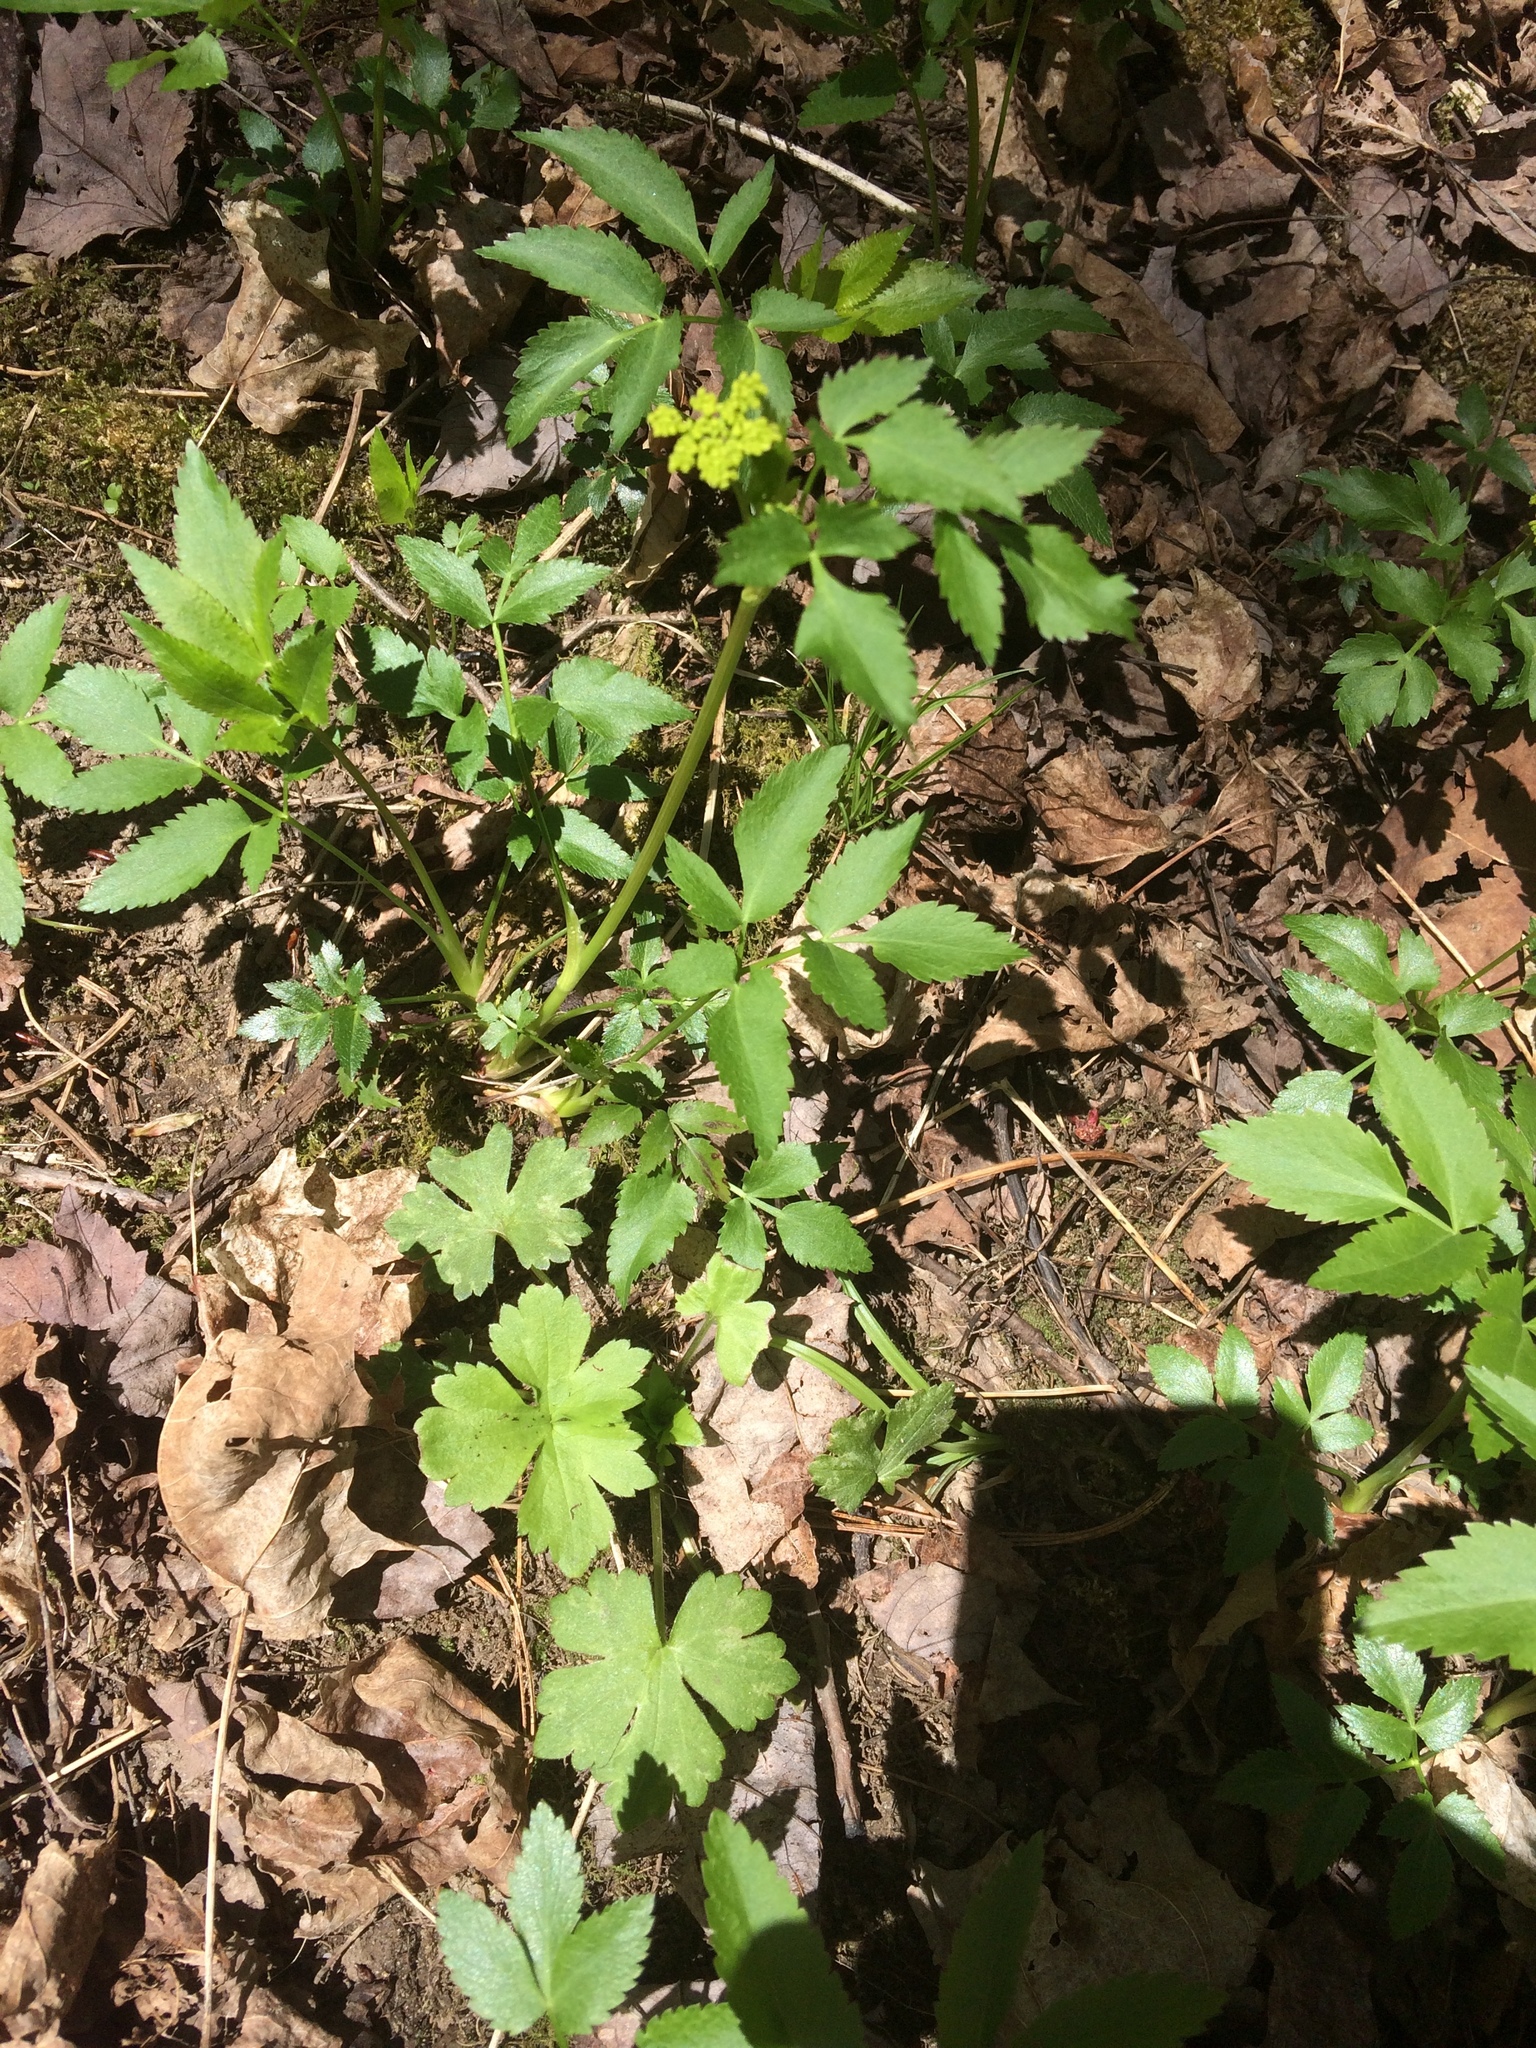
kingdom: Plantae
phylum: Tracheophyta
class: Magnoliopsida
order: Apiales
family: Apiaceae
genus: Zizia
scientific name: Zizia aurea
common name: Golden alexanders
